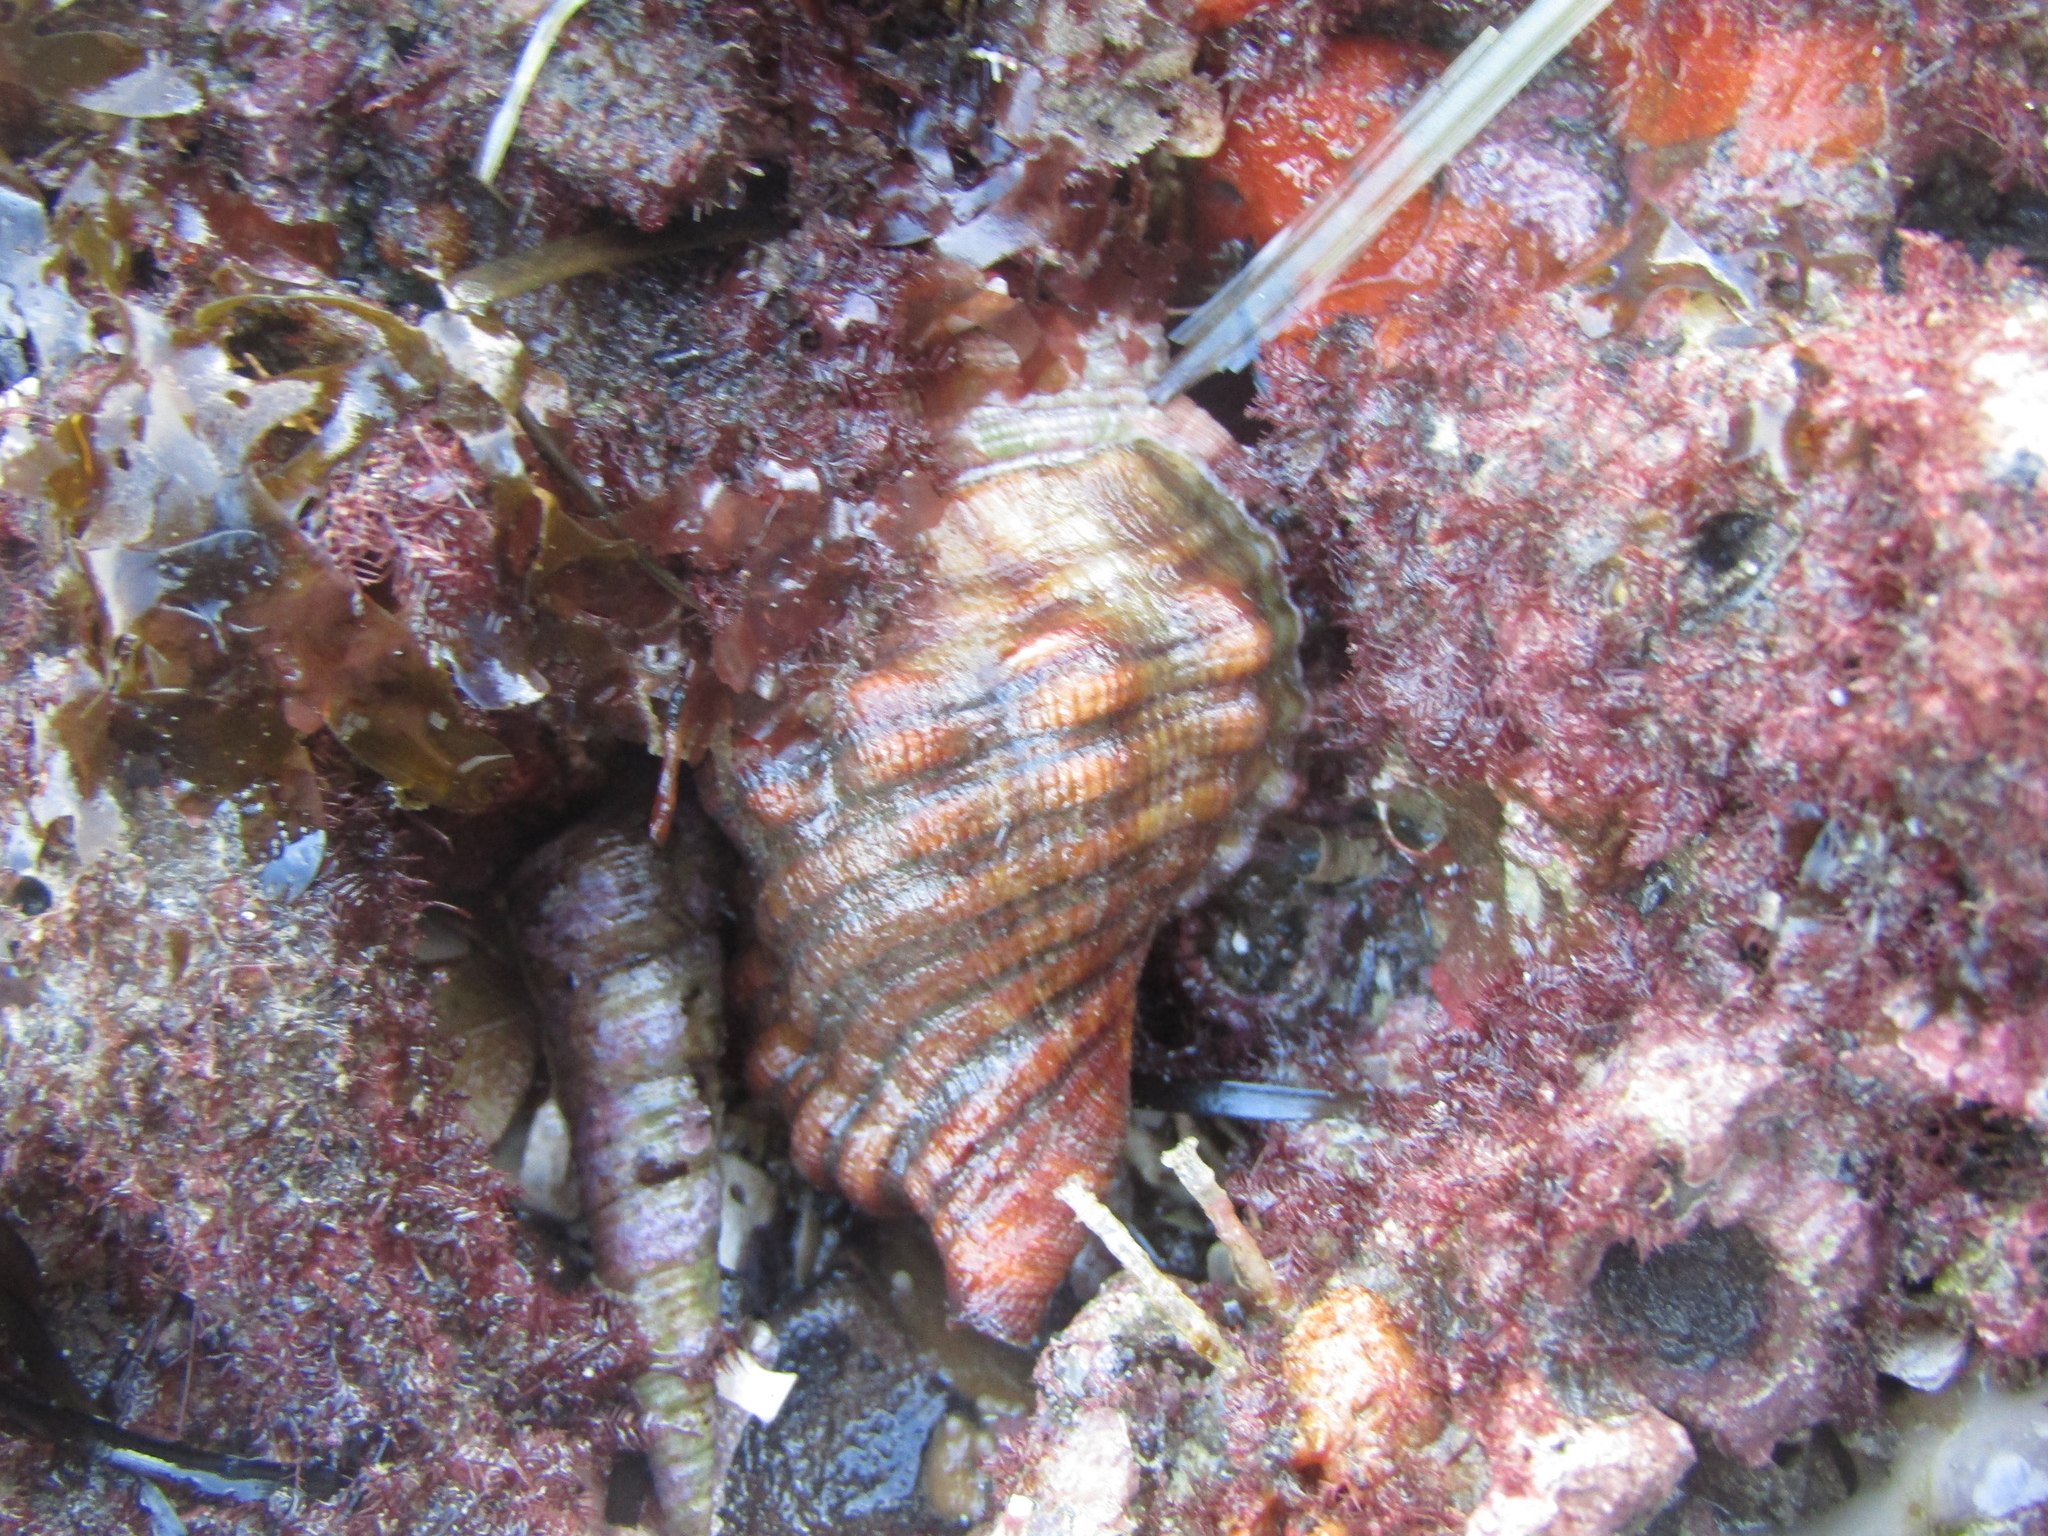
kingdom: Animalia
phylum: Mollusca
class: Gastropoda
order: Littorinimorpha
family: Cymatiidae
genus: Cabestana
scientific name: Cabestana spengleri
